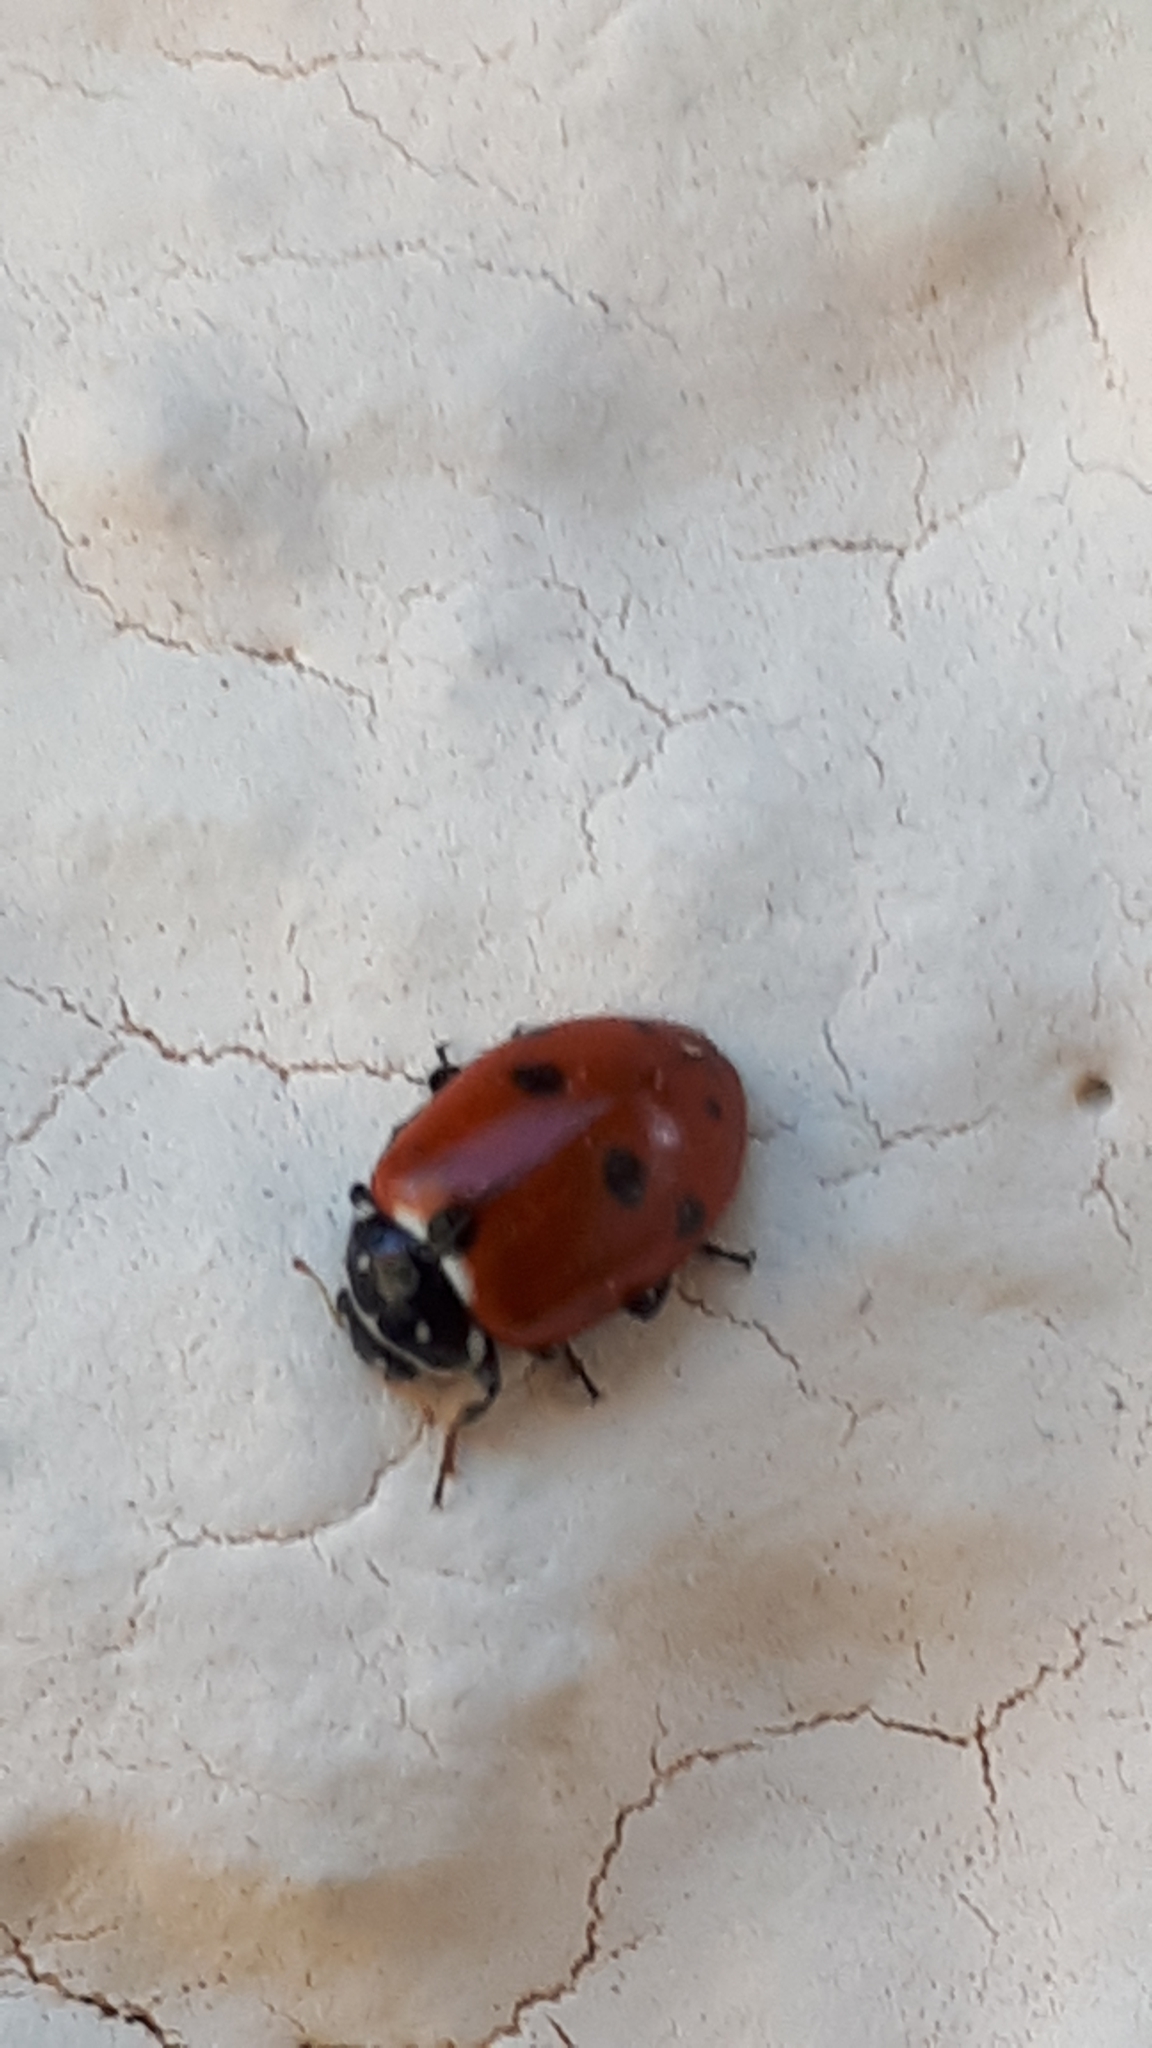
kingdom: Animalia
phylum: Arthropoda
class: Insecta
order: Coleoptera
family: Coccinellidae
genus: Hippodamia
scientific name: Hippodamia variegata
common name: Ladybird beetle
